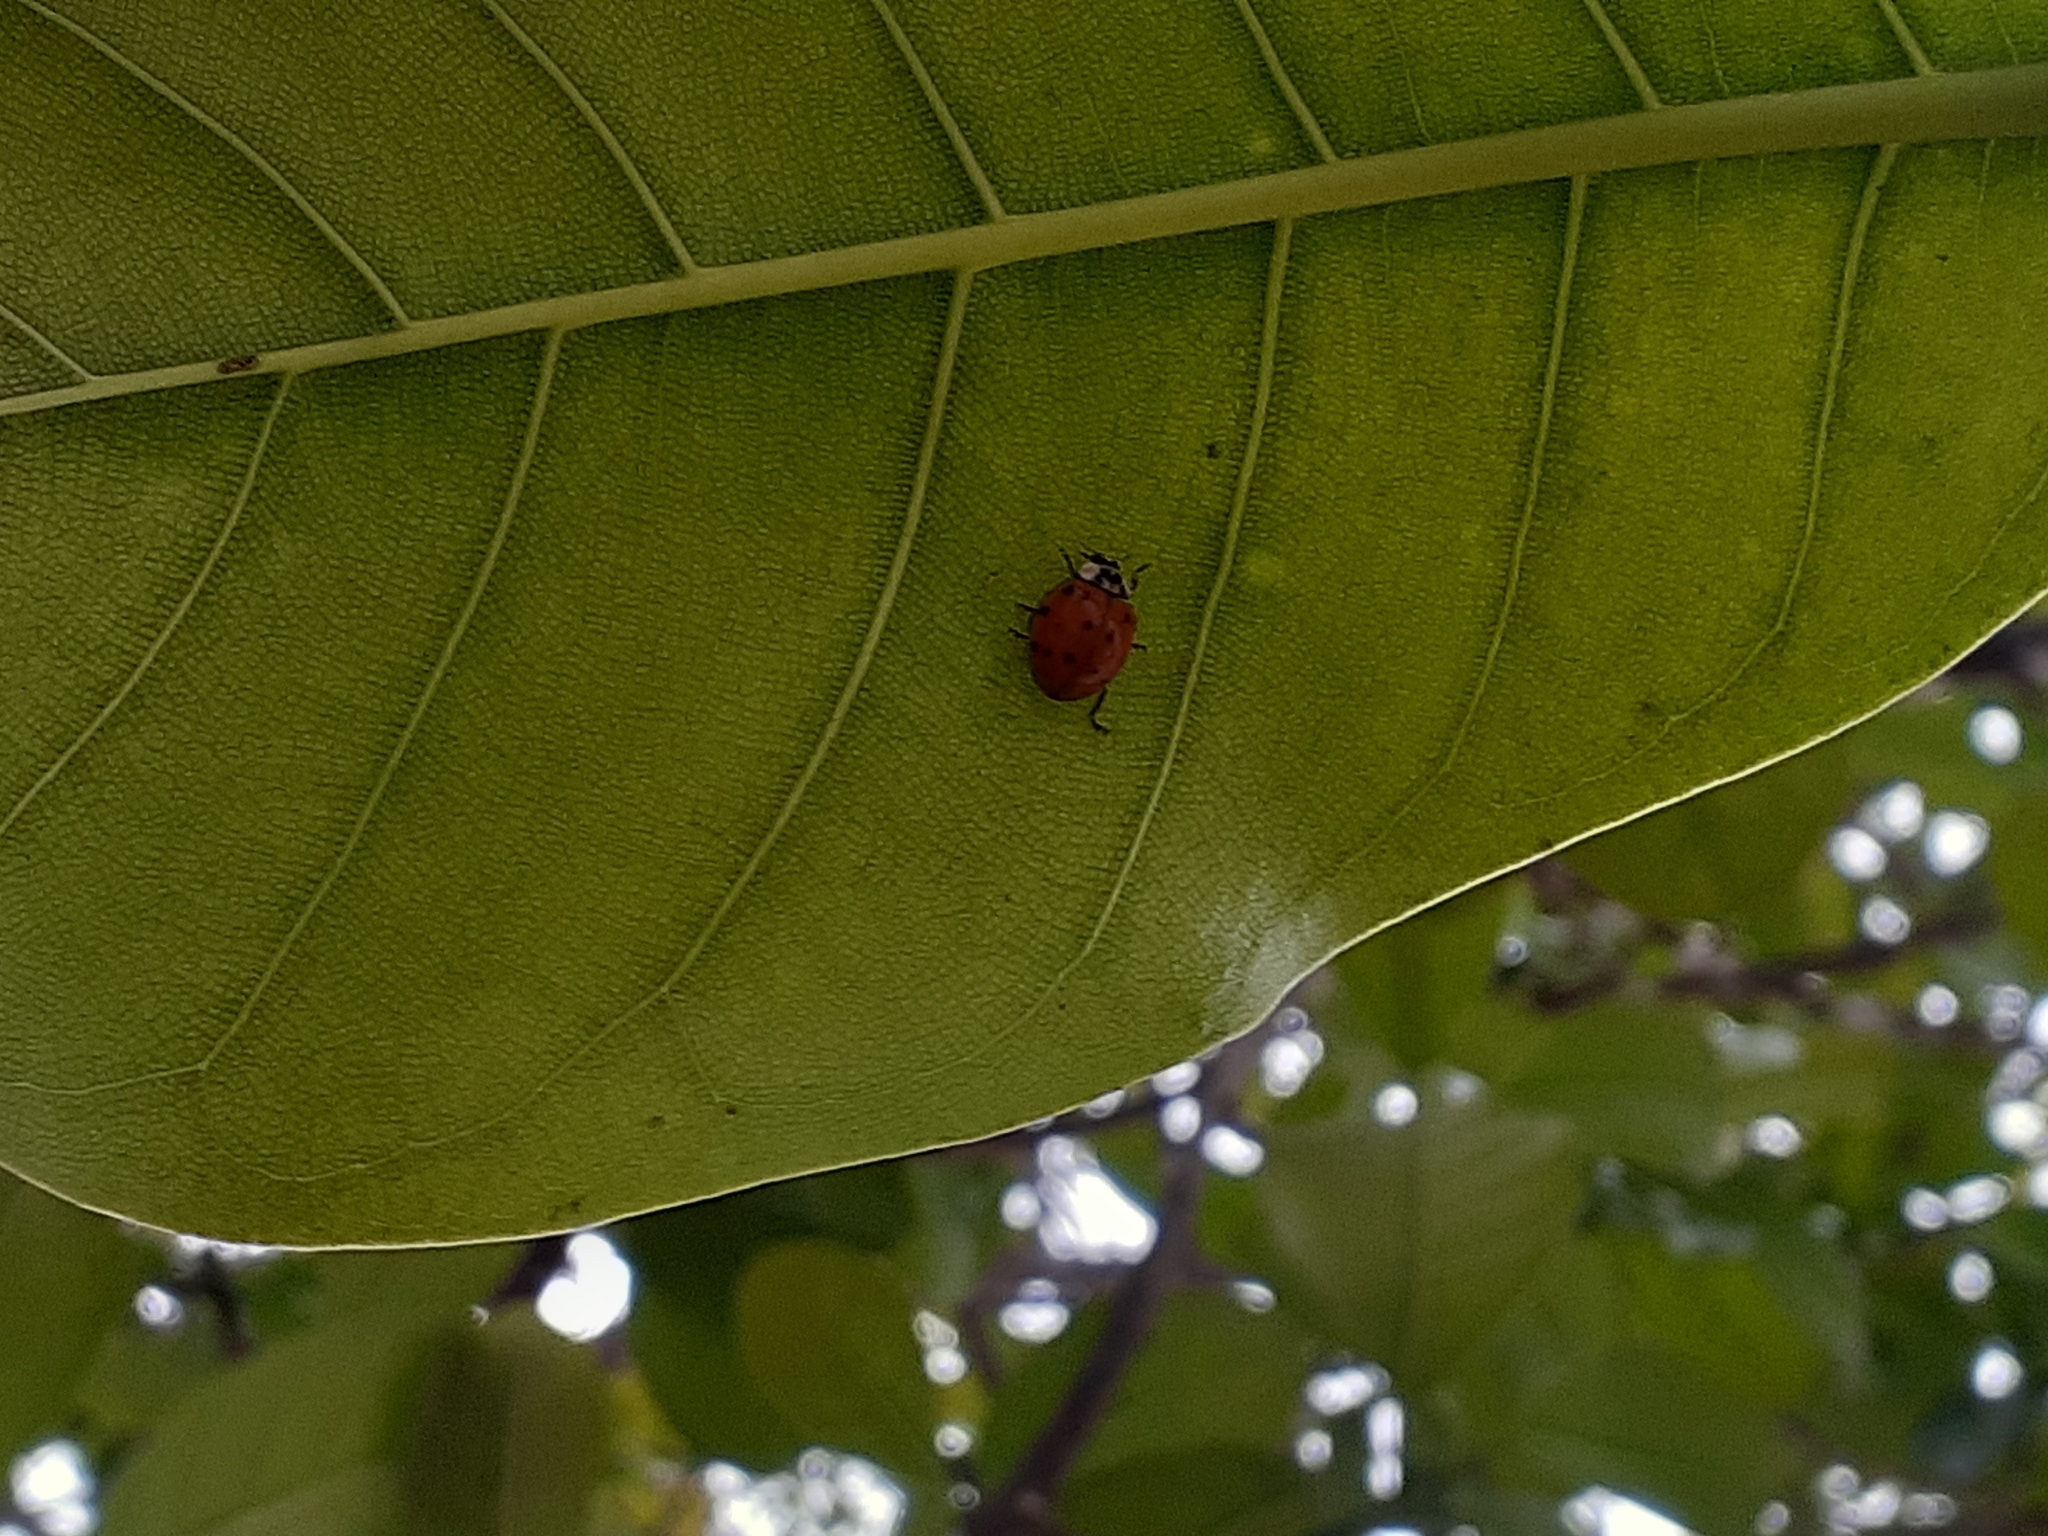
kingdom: Animalia
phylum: Arthropoda
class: Insecta
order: Coleoptera
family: Coccinellidae
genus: Harmonia
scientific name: Harmonia axyridis
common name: Harlequin ladybird
